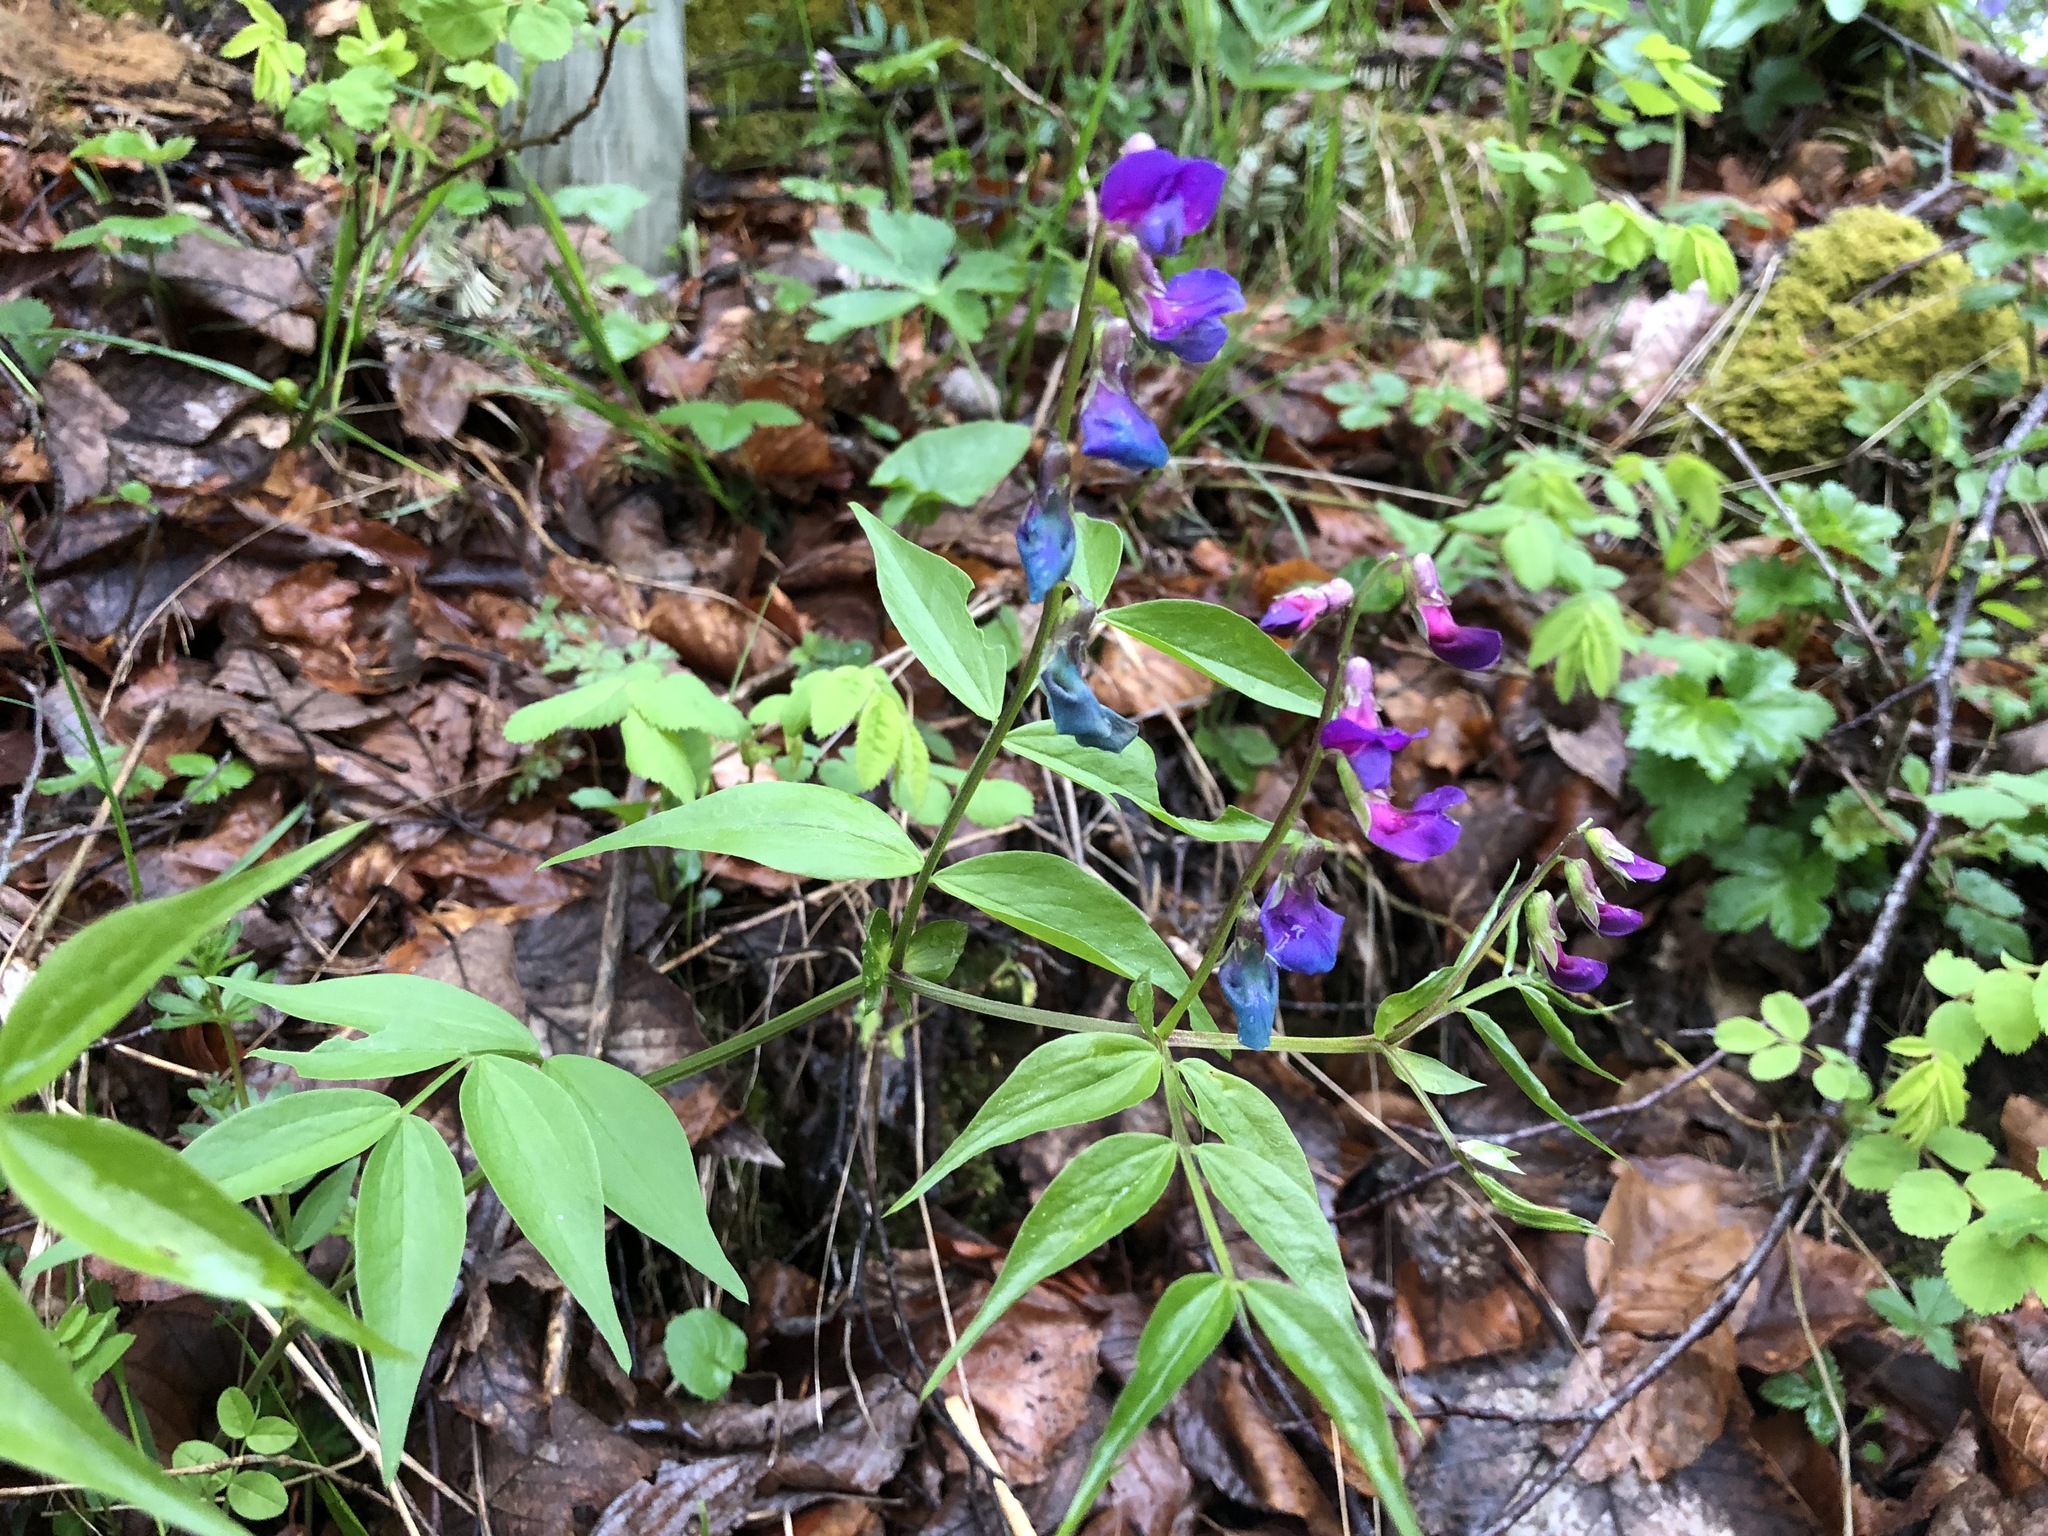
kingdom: Plantae
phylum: Tracheophyta
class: Magnoliopsida
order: Fabales
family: Fabaceae
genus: Lathyrus
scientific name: Lathyrus vernus
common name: Spring pea
